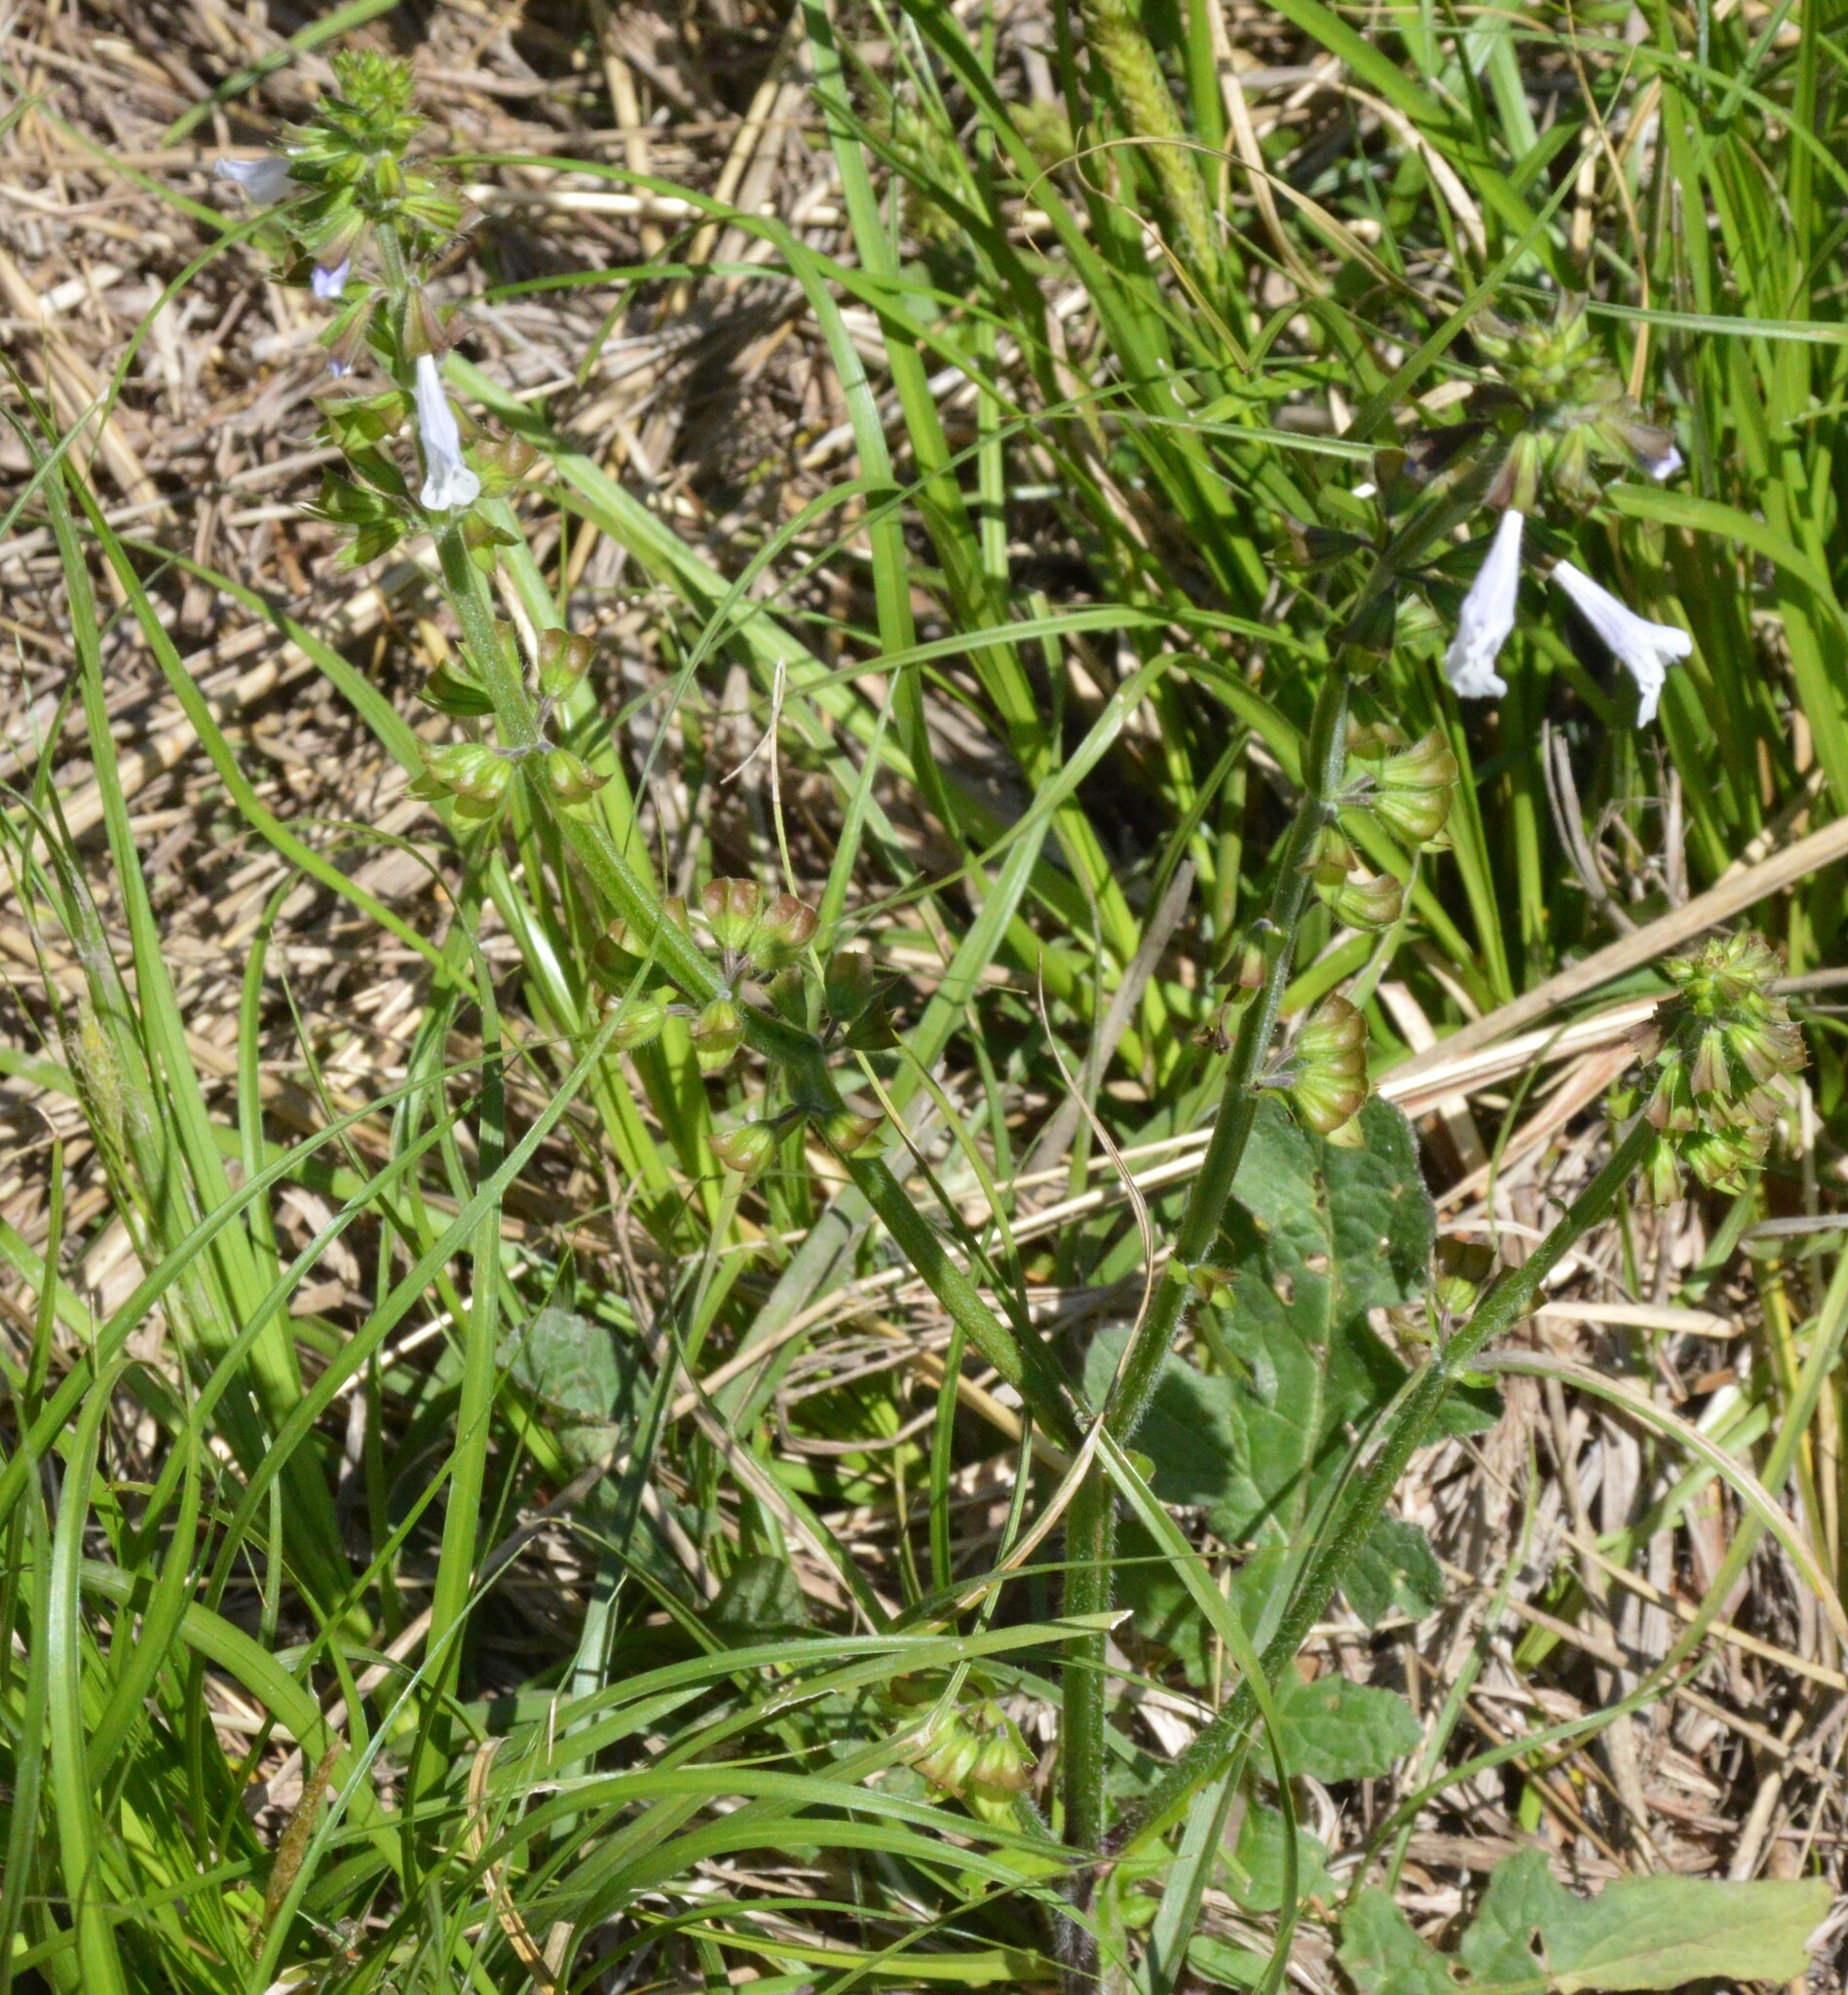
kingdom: Plantae
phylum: Tracheophyta
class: Magnoliopsida
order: Lamiales
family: Lamiaceae
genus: Salvia
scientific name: Salvia lyrata
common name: Cancerweed
